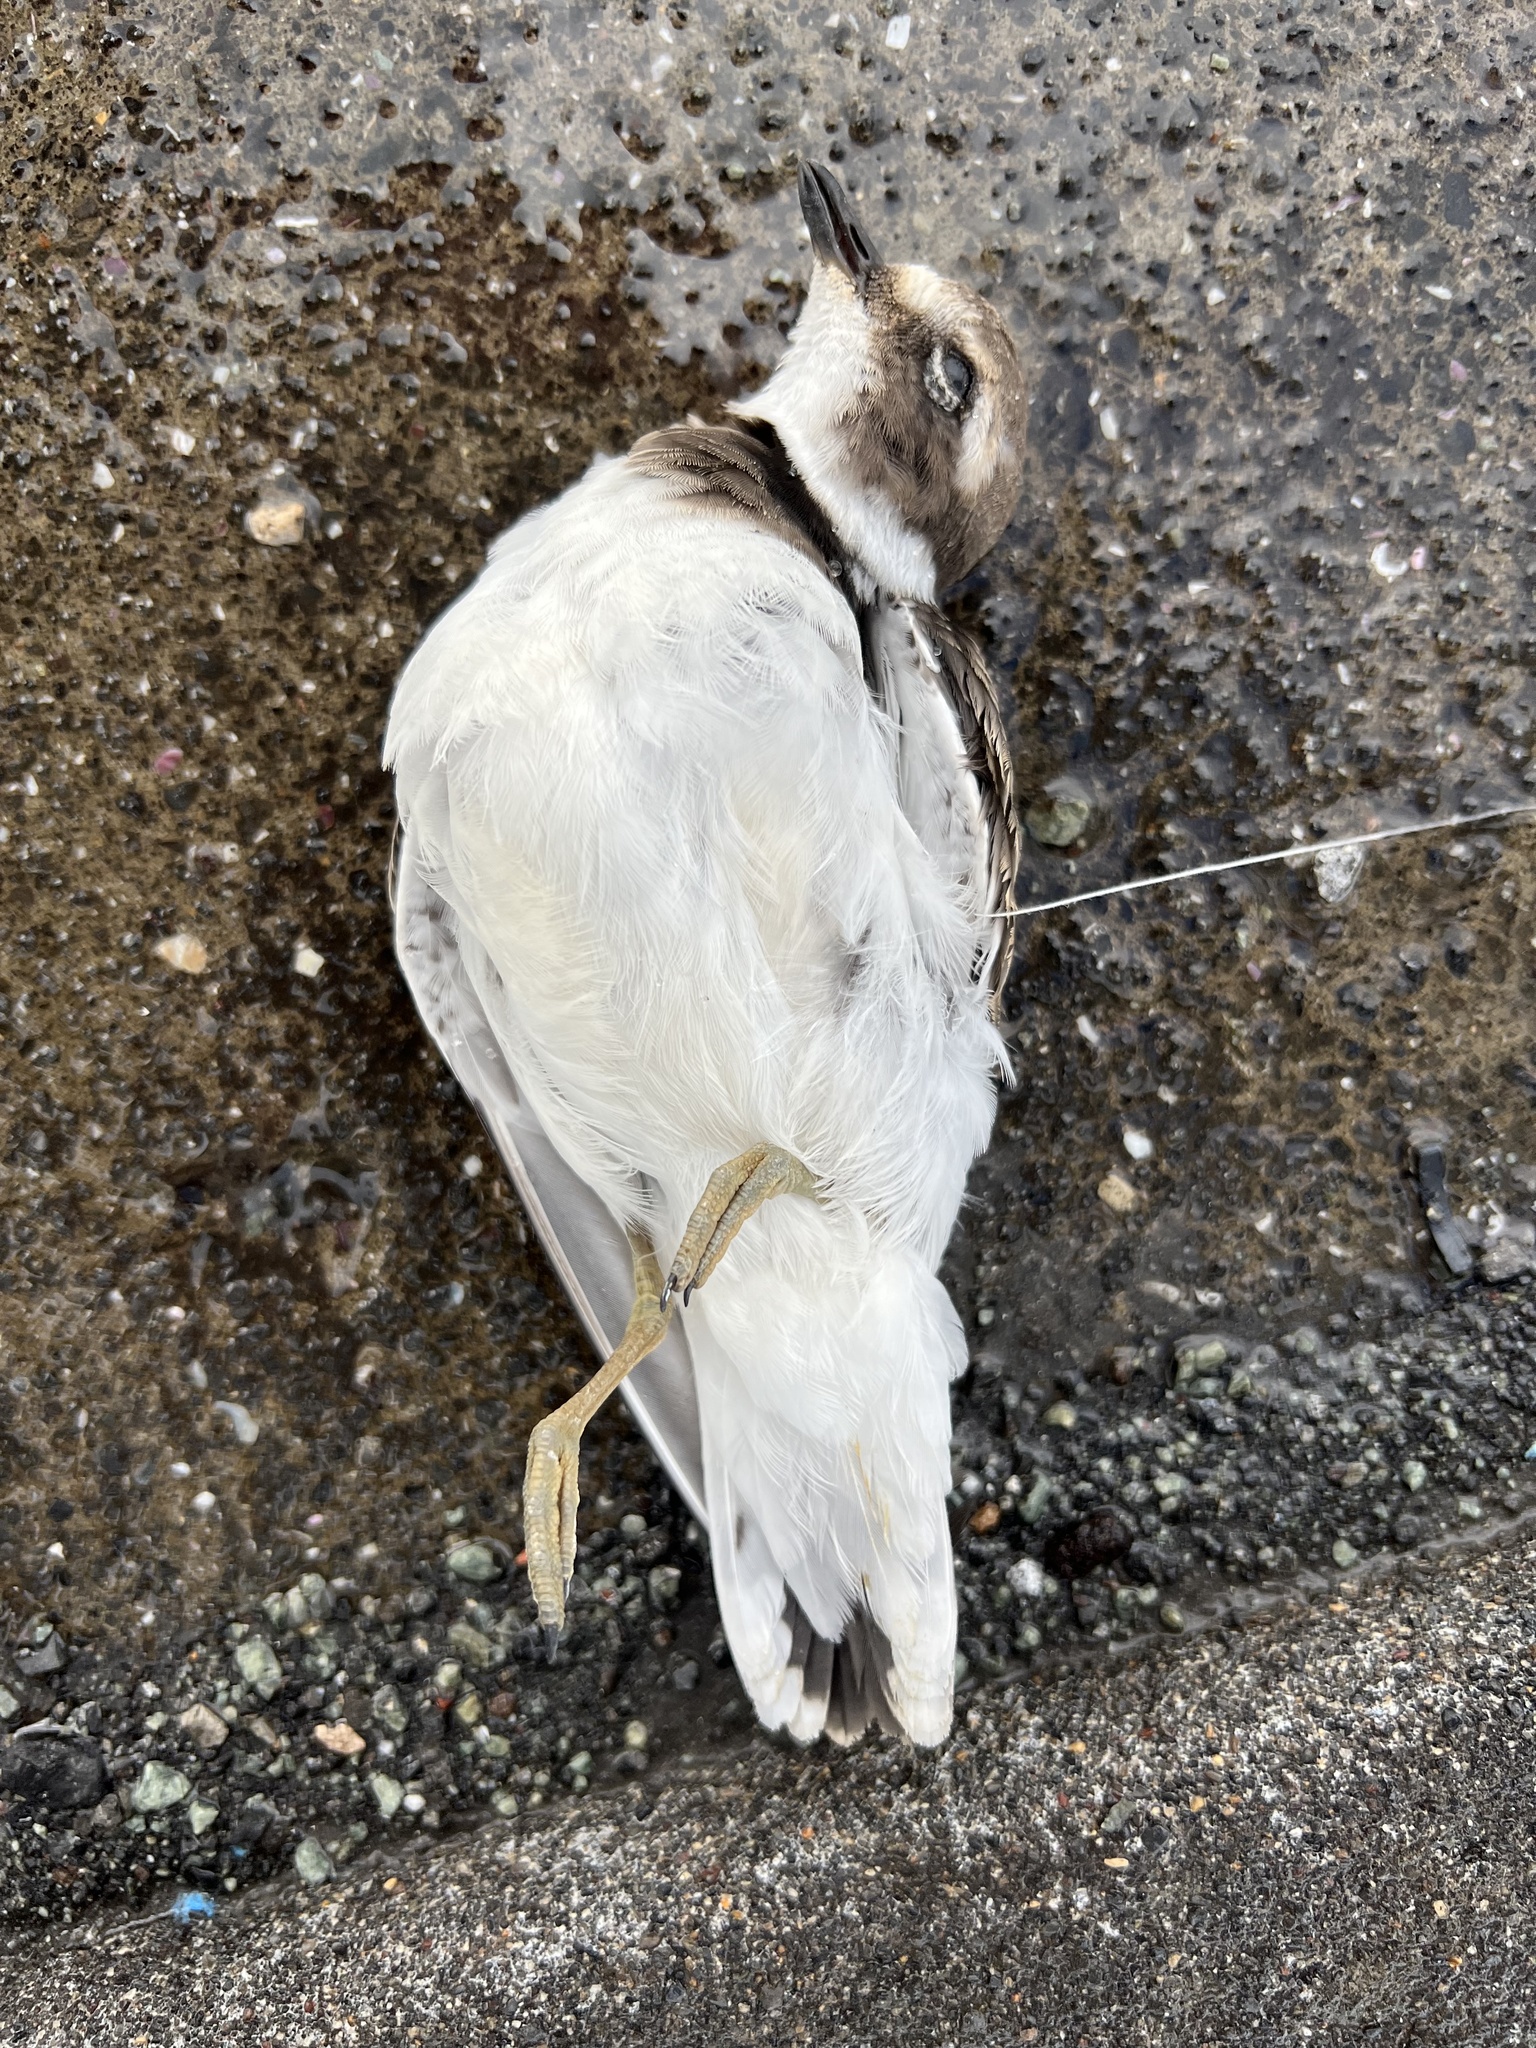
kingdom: Animalia
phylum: Chordata
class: Aves
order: Charadriiformes
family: Charadriidae
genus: Charadrius
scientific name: Charadrius hiaticula
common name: Common ringed plover
